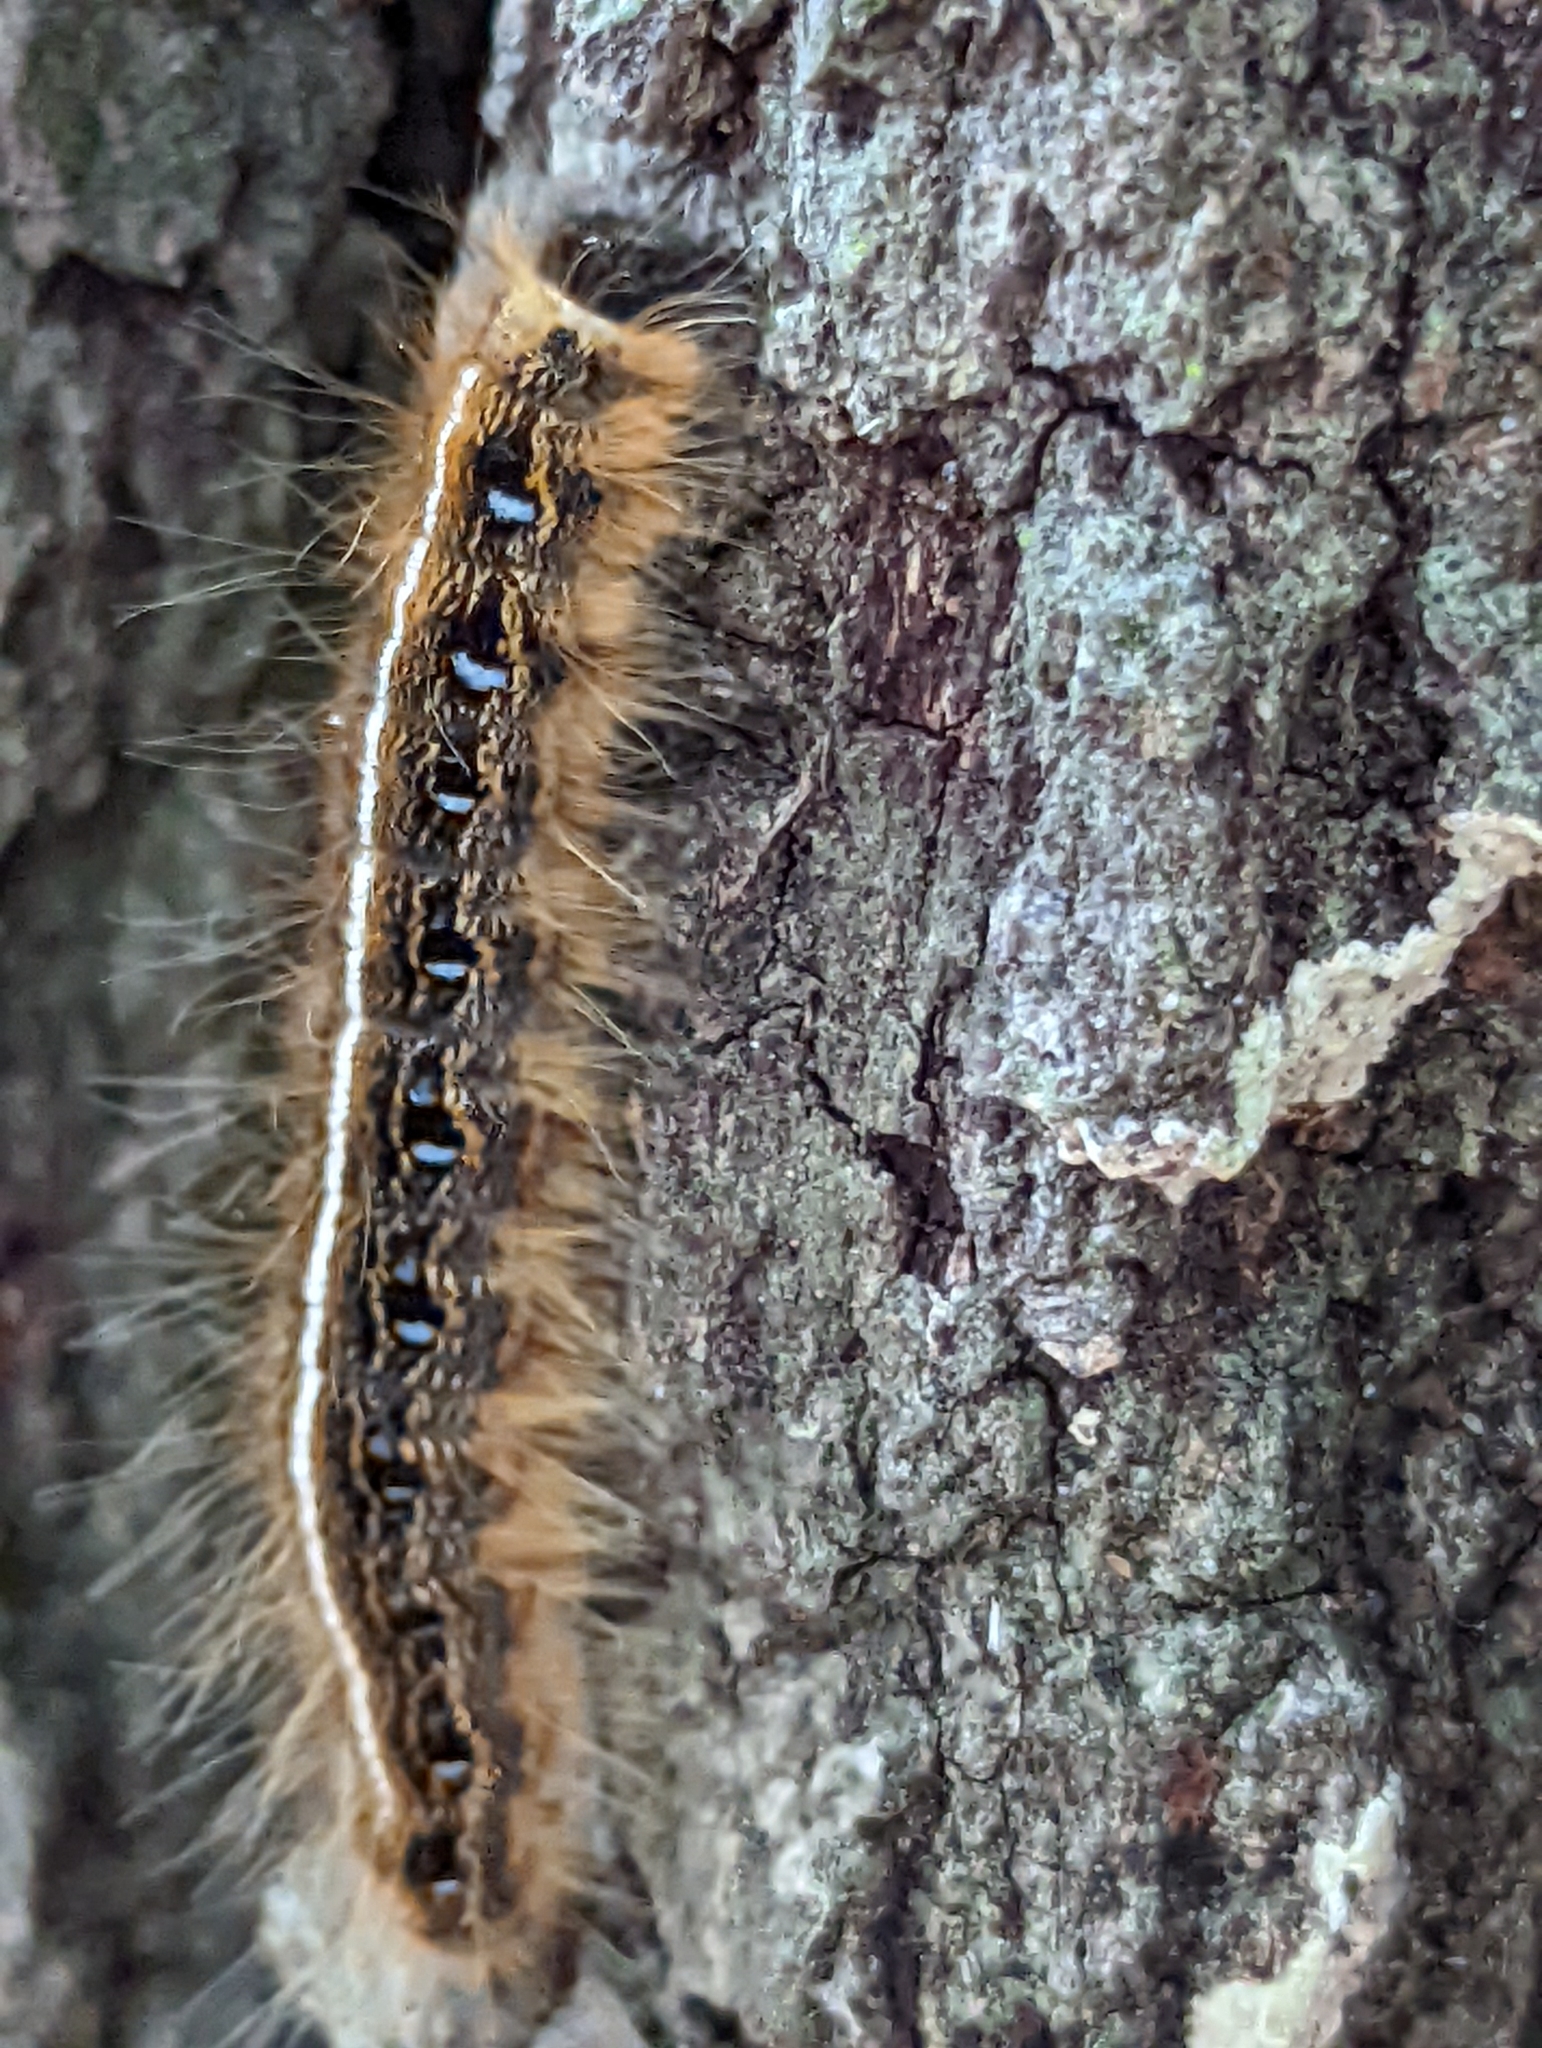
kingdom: Animalia
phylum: Arthropoda
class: Insecta
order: Lepidoptera
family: Lasiocampidae
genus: Malacosoma
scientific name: Malacosoma americana
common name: Eastern tent caterpillar moth
